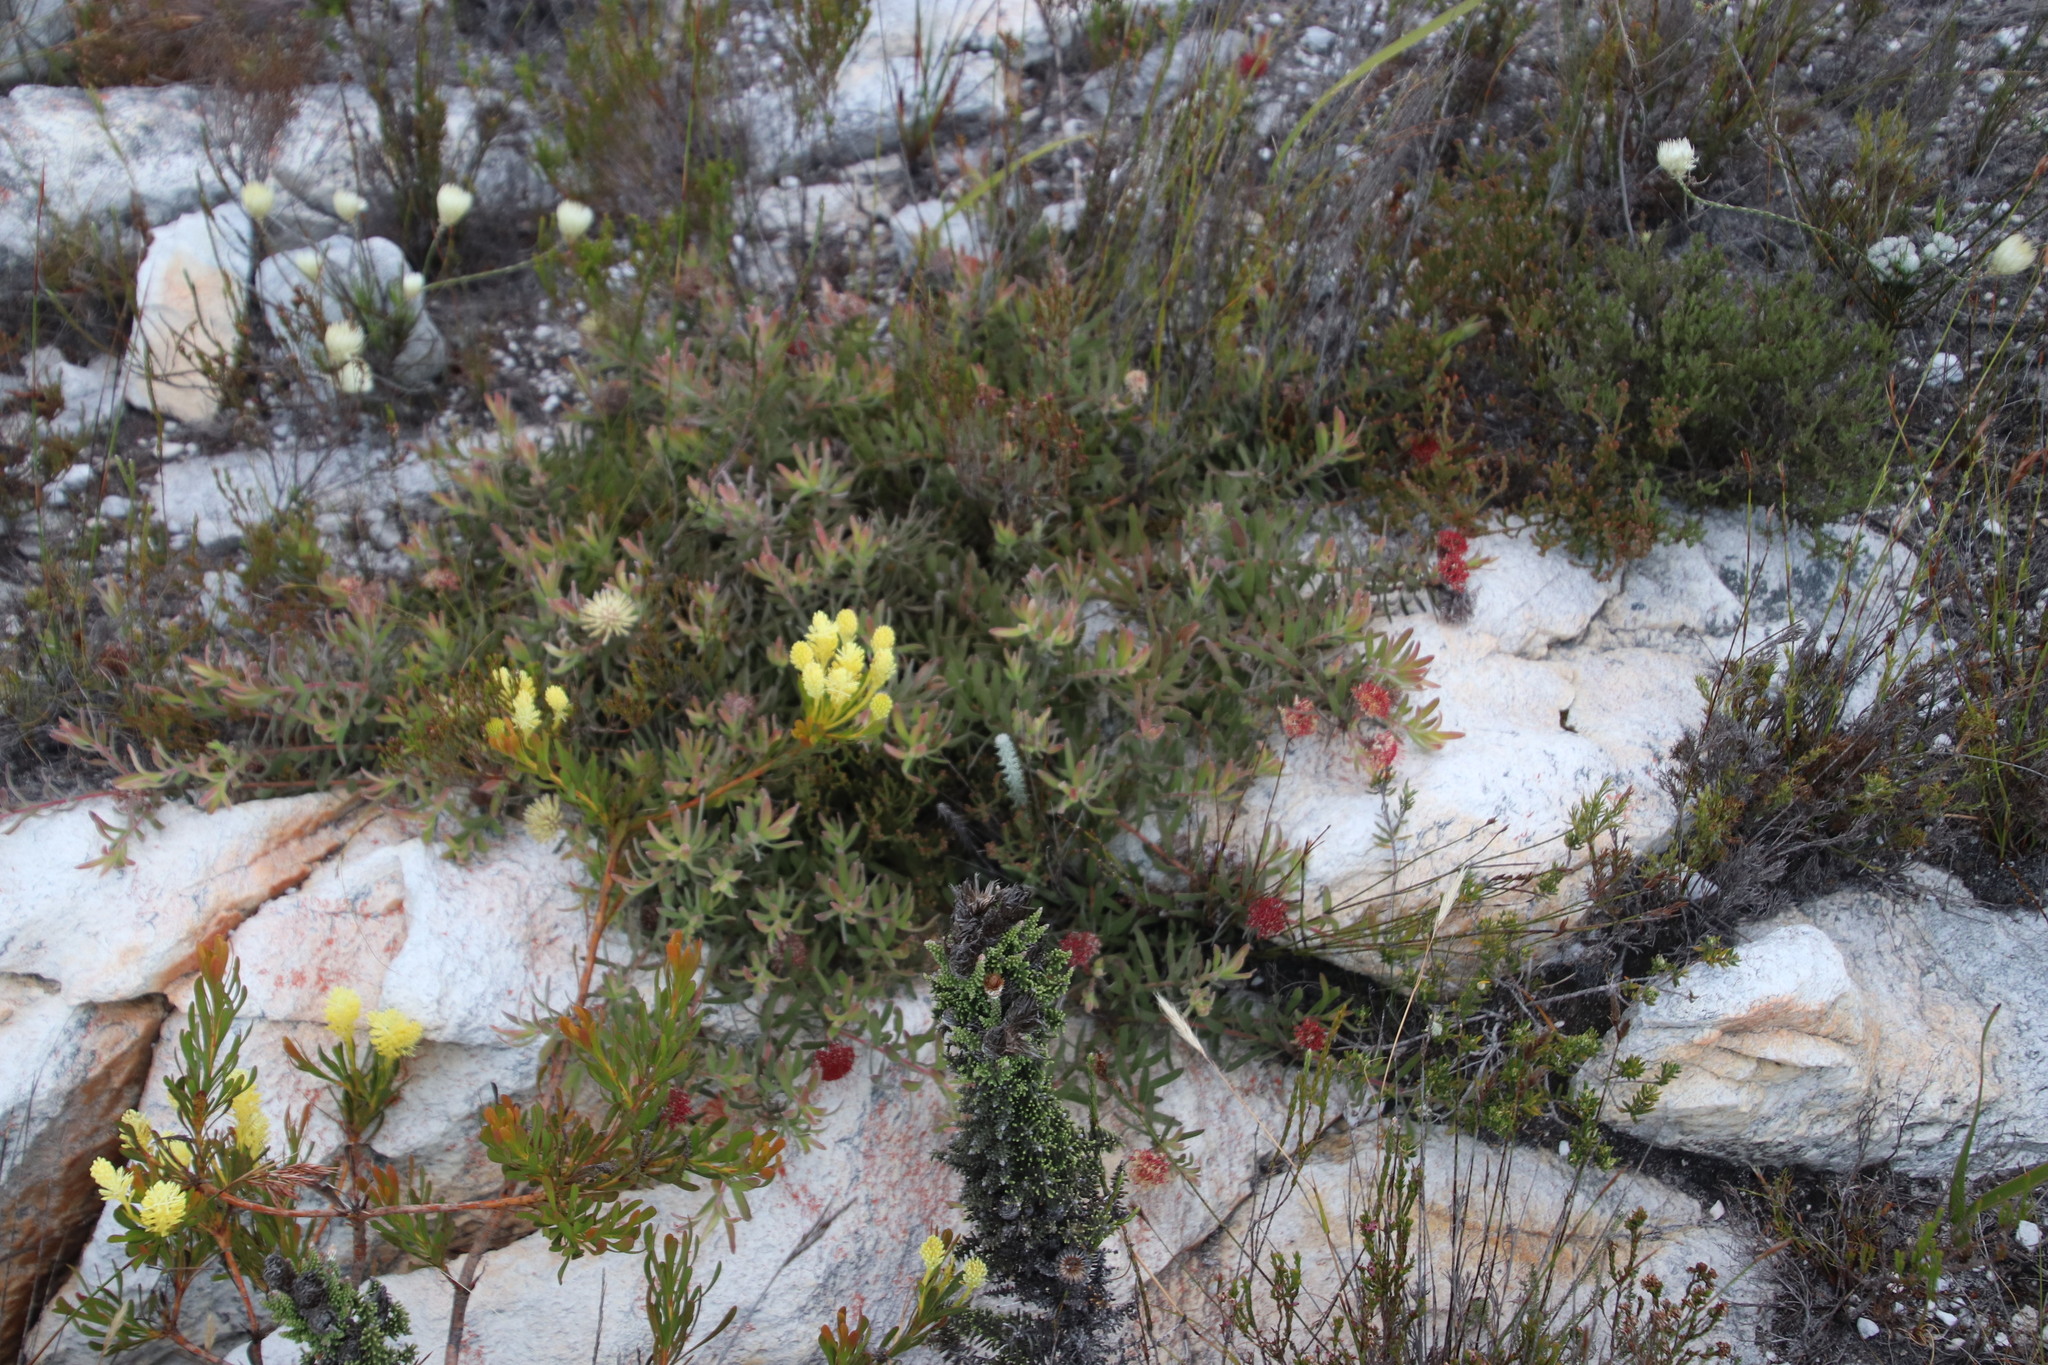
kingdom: Plantae
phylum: Tracheophyta
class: Magnoliopsida
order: Proteales
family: Proteaceae
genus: Leucospermum
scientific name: Leucospermum pedunculatum
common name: White-trailing pincushion
